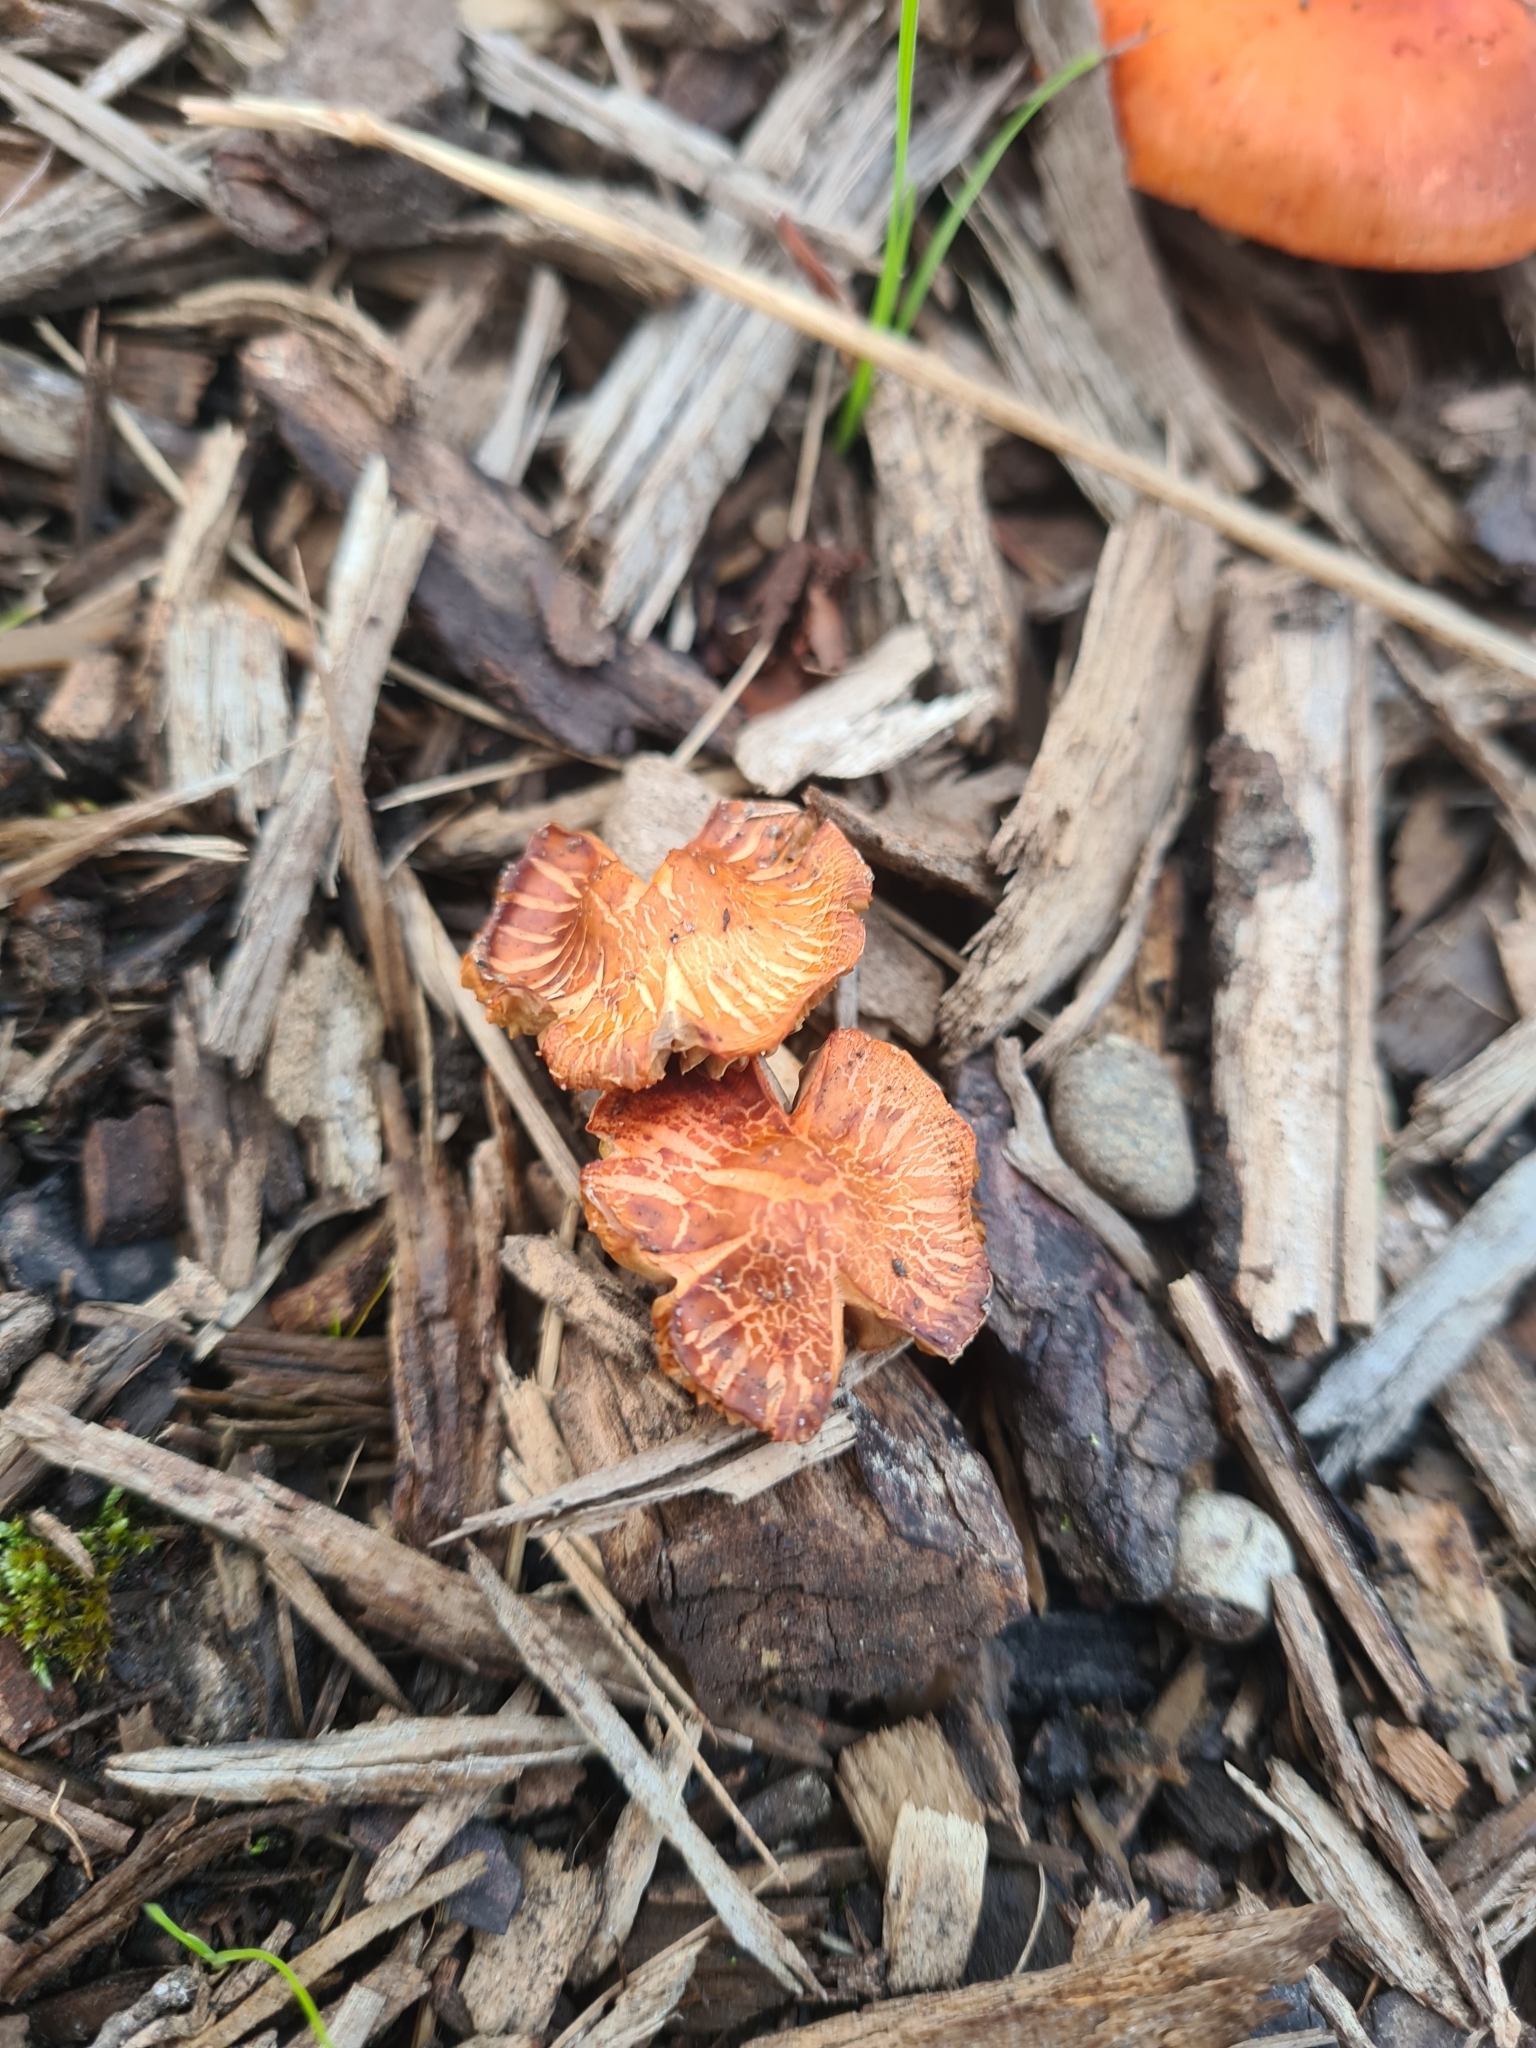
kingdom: Fungi
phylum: Basidiomycota
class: Agaricomycetes
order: Agaricales
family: Strophariaceae
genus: Leratiomyces
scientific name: Leratiomyces ceres
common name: Redlead roundhead
